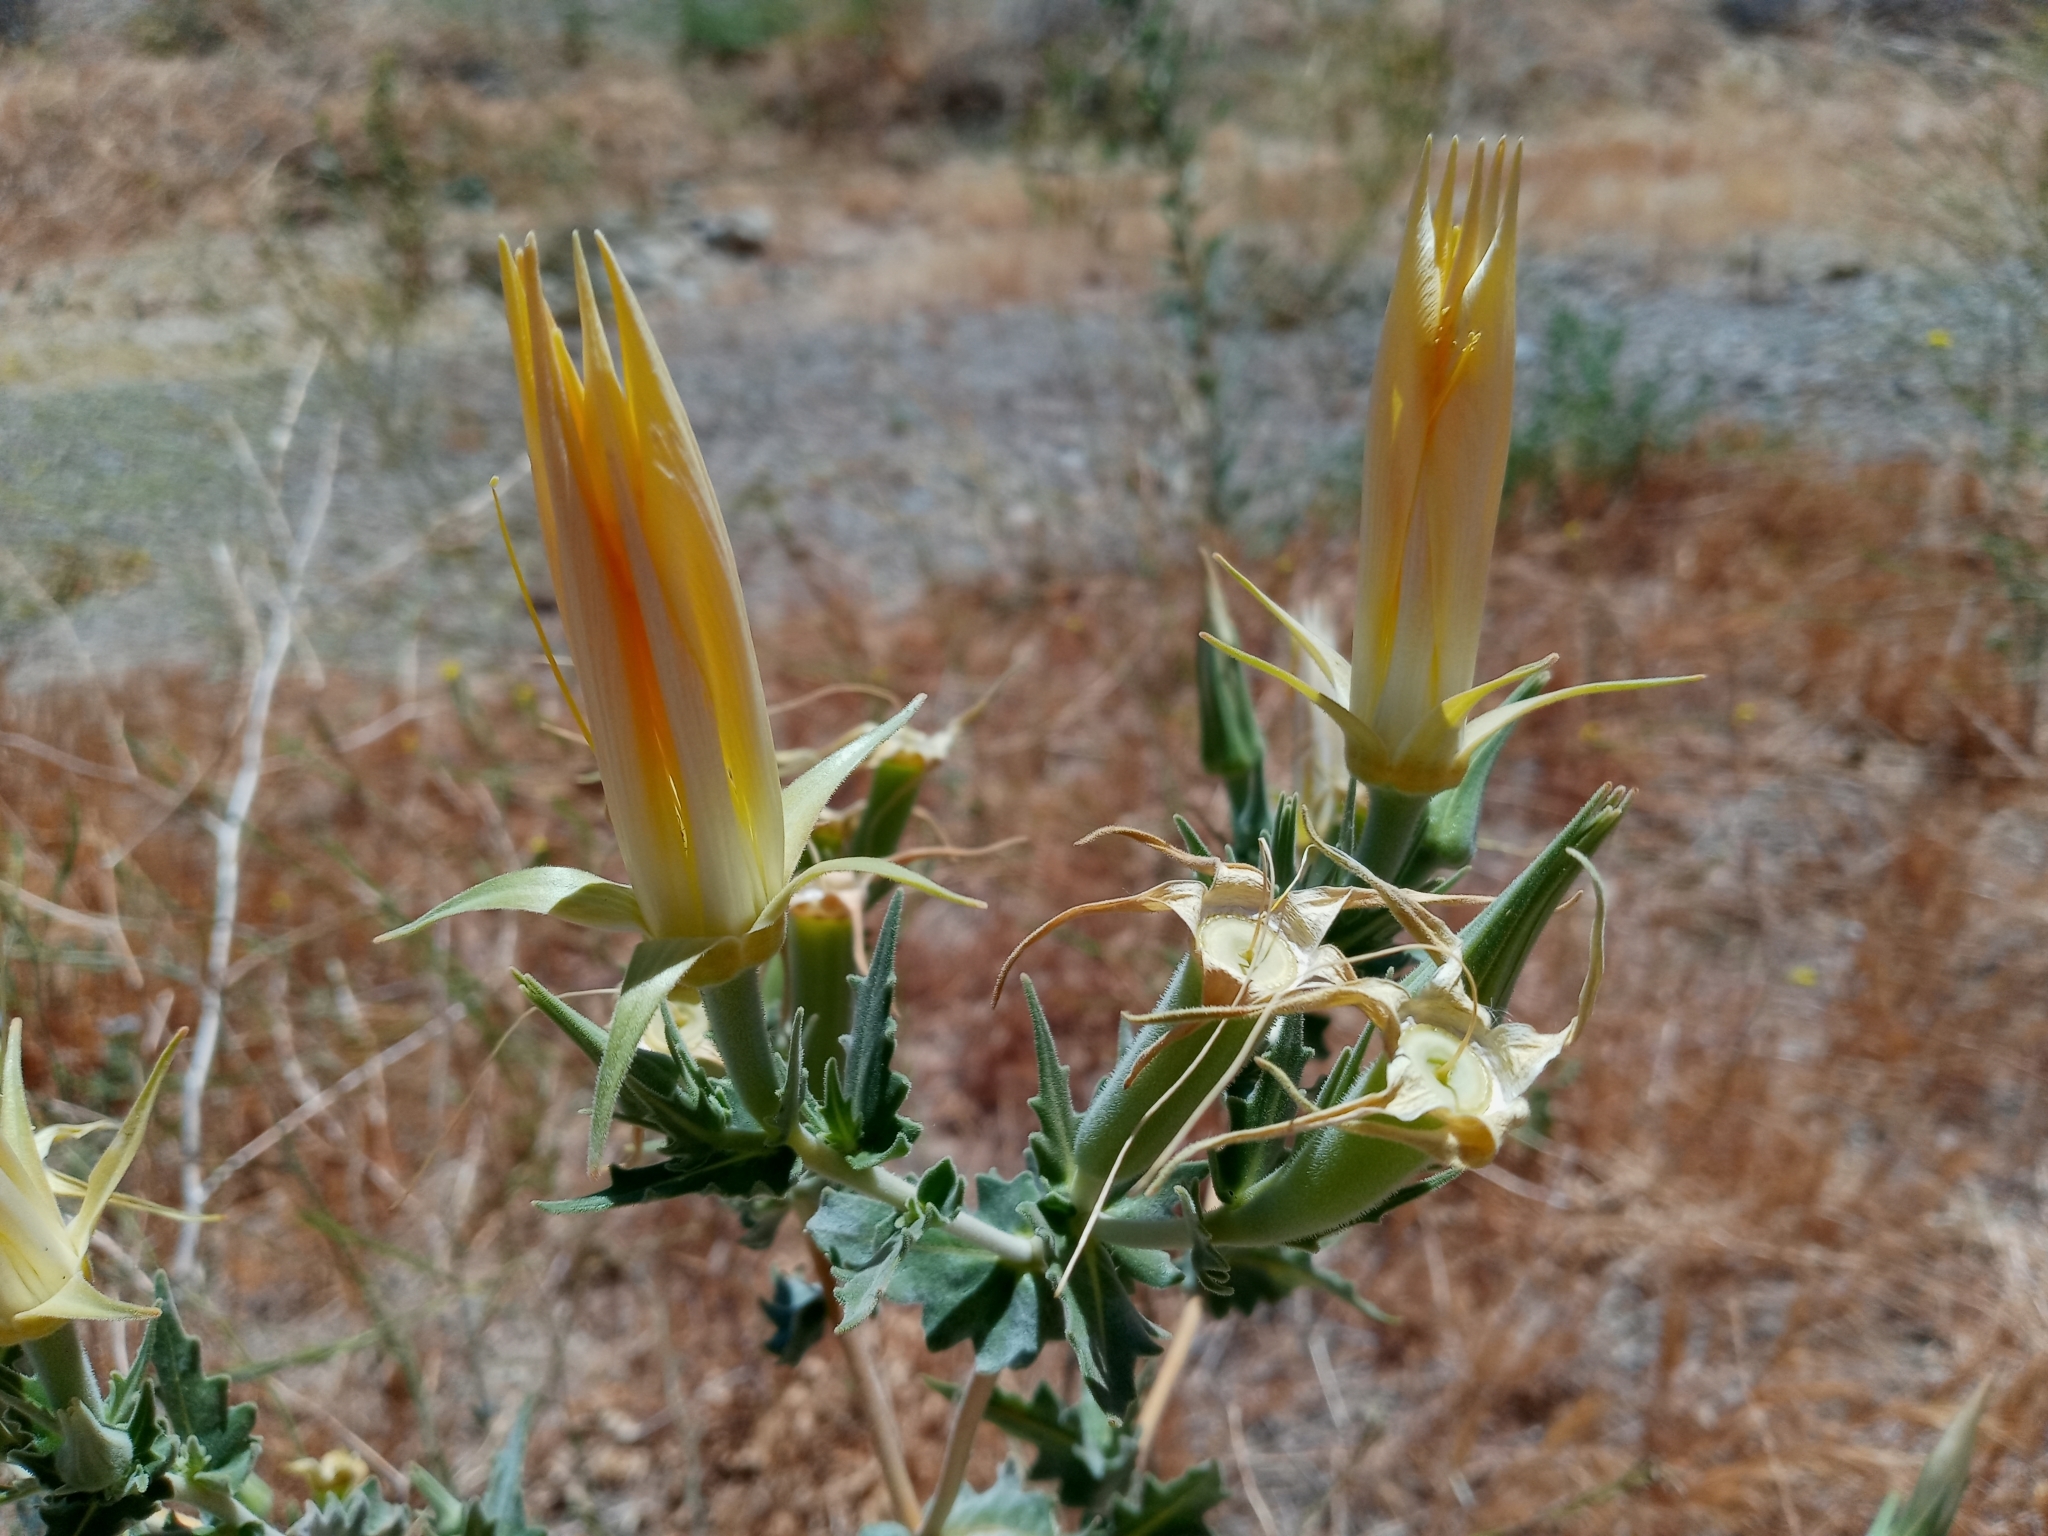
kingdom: Plantae
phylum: Tracheophyta
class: Magnoliopsida
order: Cornales
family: Loasaceae
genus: Mentzelia
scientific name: Mentzelia laevicaulis
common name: Smooth-stem blazingstar
